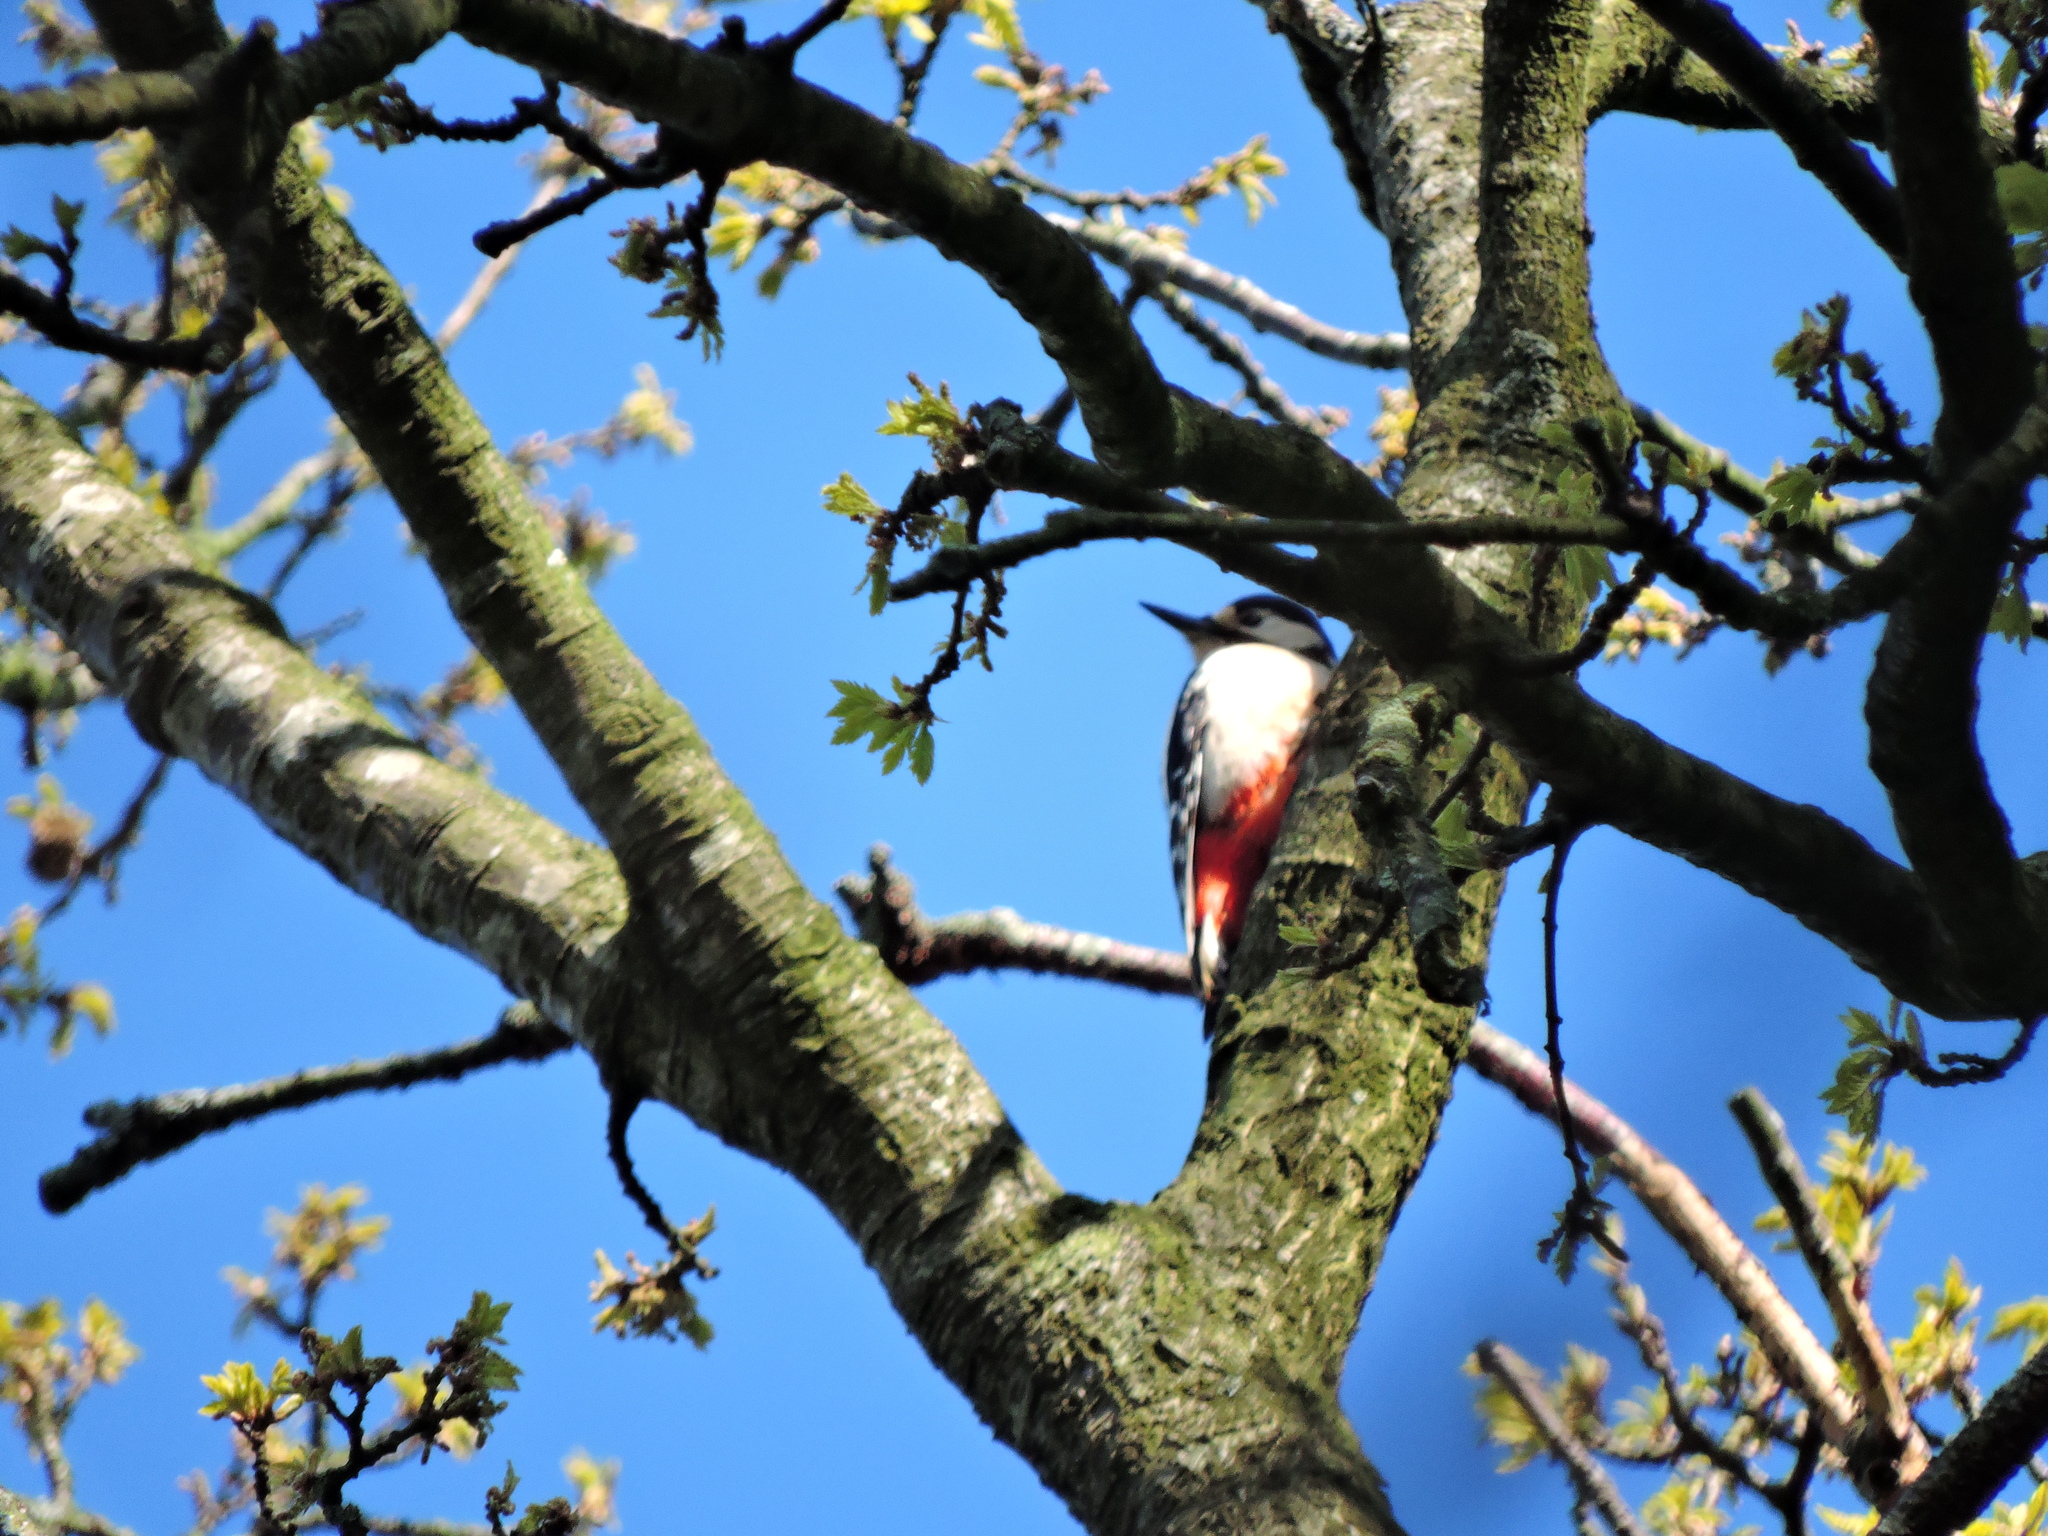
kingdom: Animalia
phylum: Chordata
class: Aves
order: Piciformes
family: Picidae
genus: Dendrocopos
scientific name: Dendrocopos major
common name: Great spotted woodpecker
